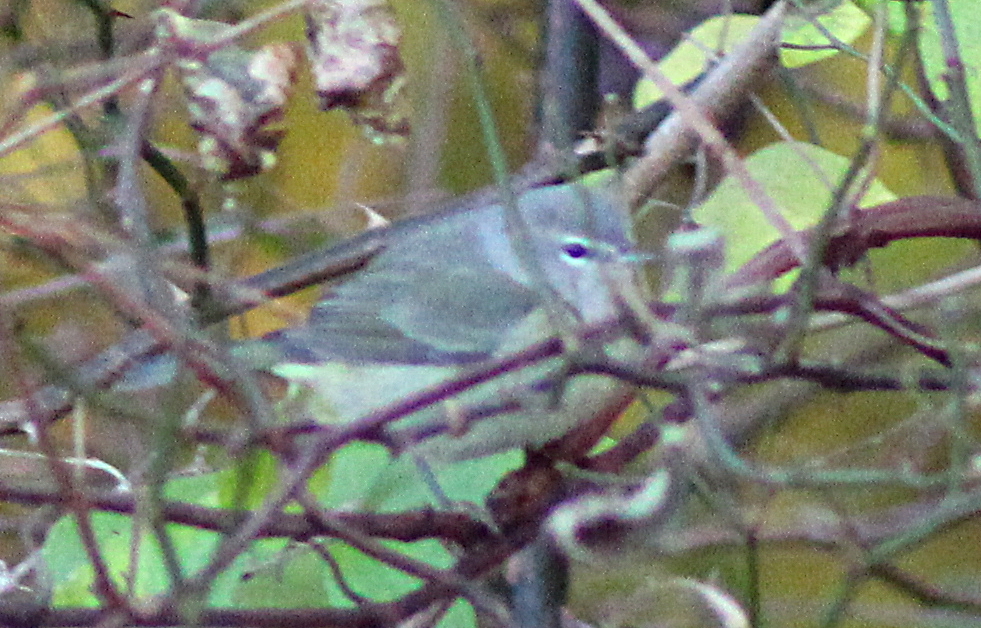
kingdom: Animalia
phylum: Chordata
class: Aves
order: Passeriformes
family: Parulidae
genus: Leiothlypis
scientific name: Leiothlypis celata
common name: Orange-crowned warbler
